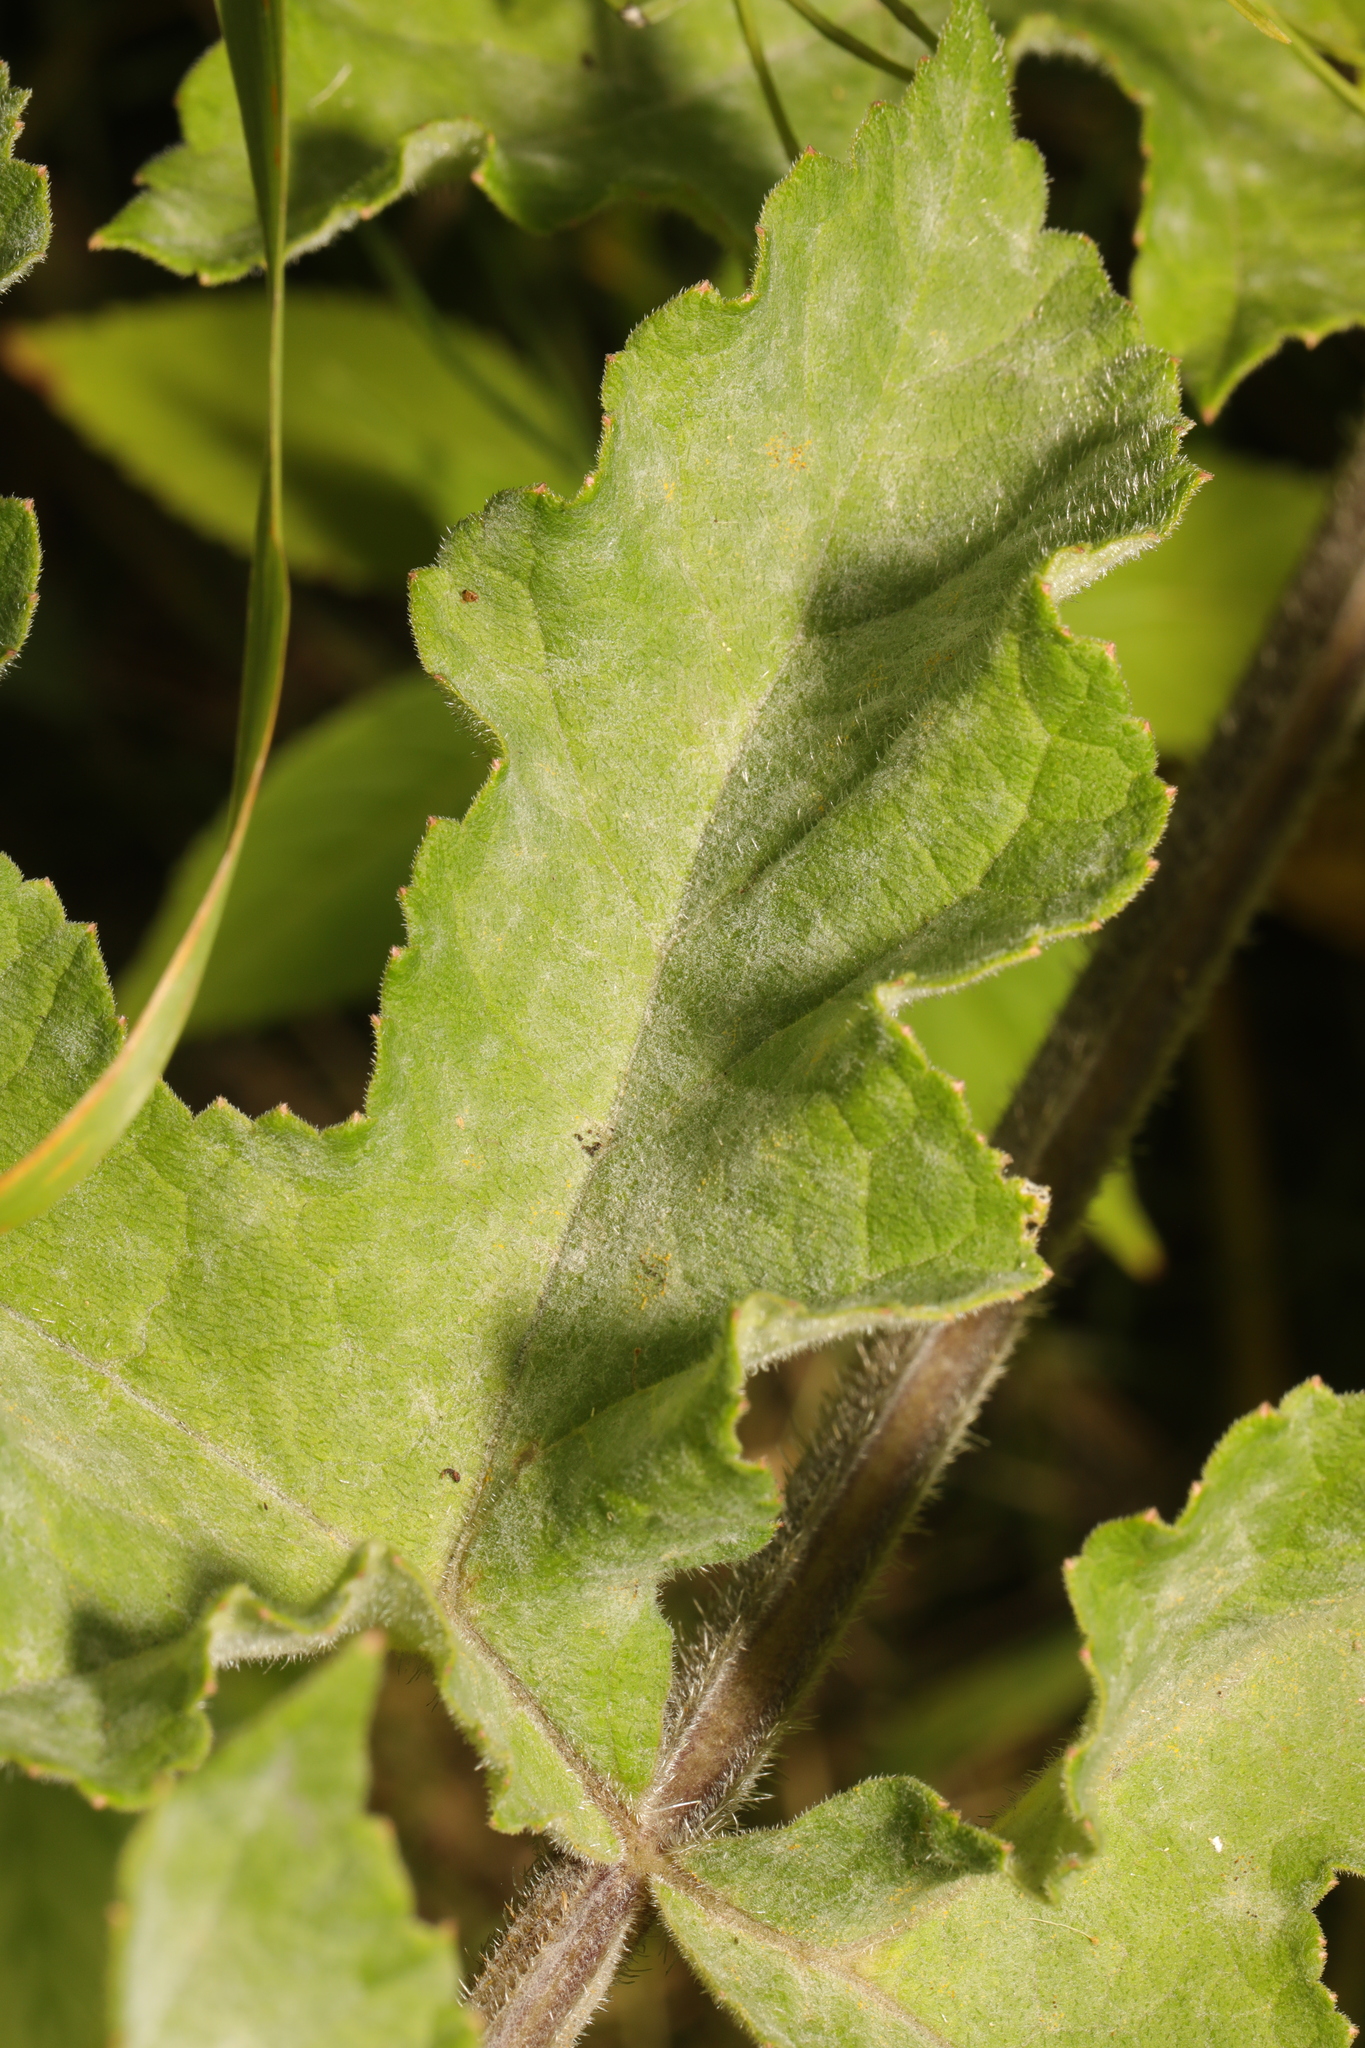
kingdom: Fungi
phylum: Ascomycota
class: Leotiomycetes
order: Helotiales
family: Erysiphaceae
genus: Erysiphe
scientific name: Erysiphe heraclei
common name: Umbellifer mildew
